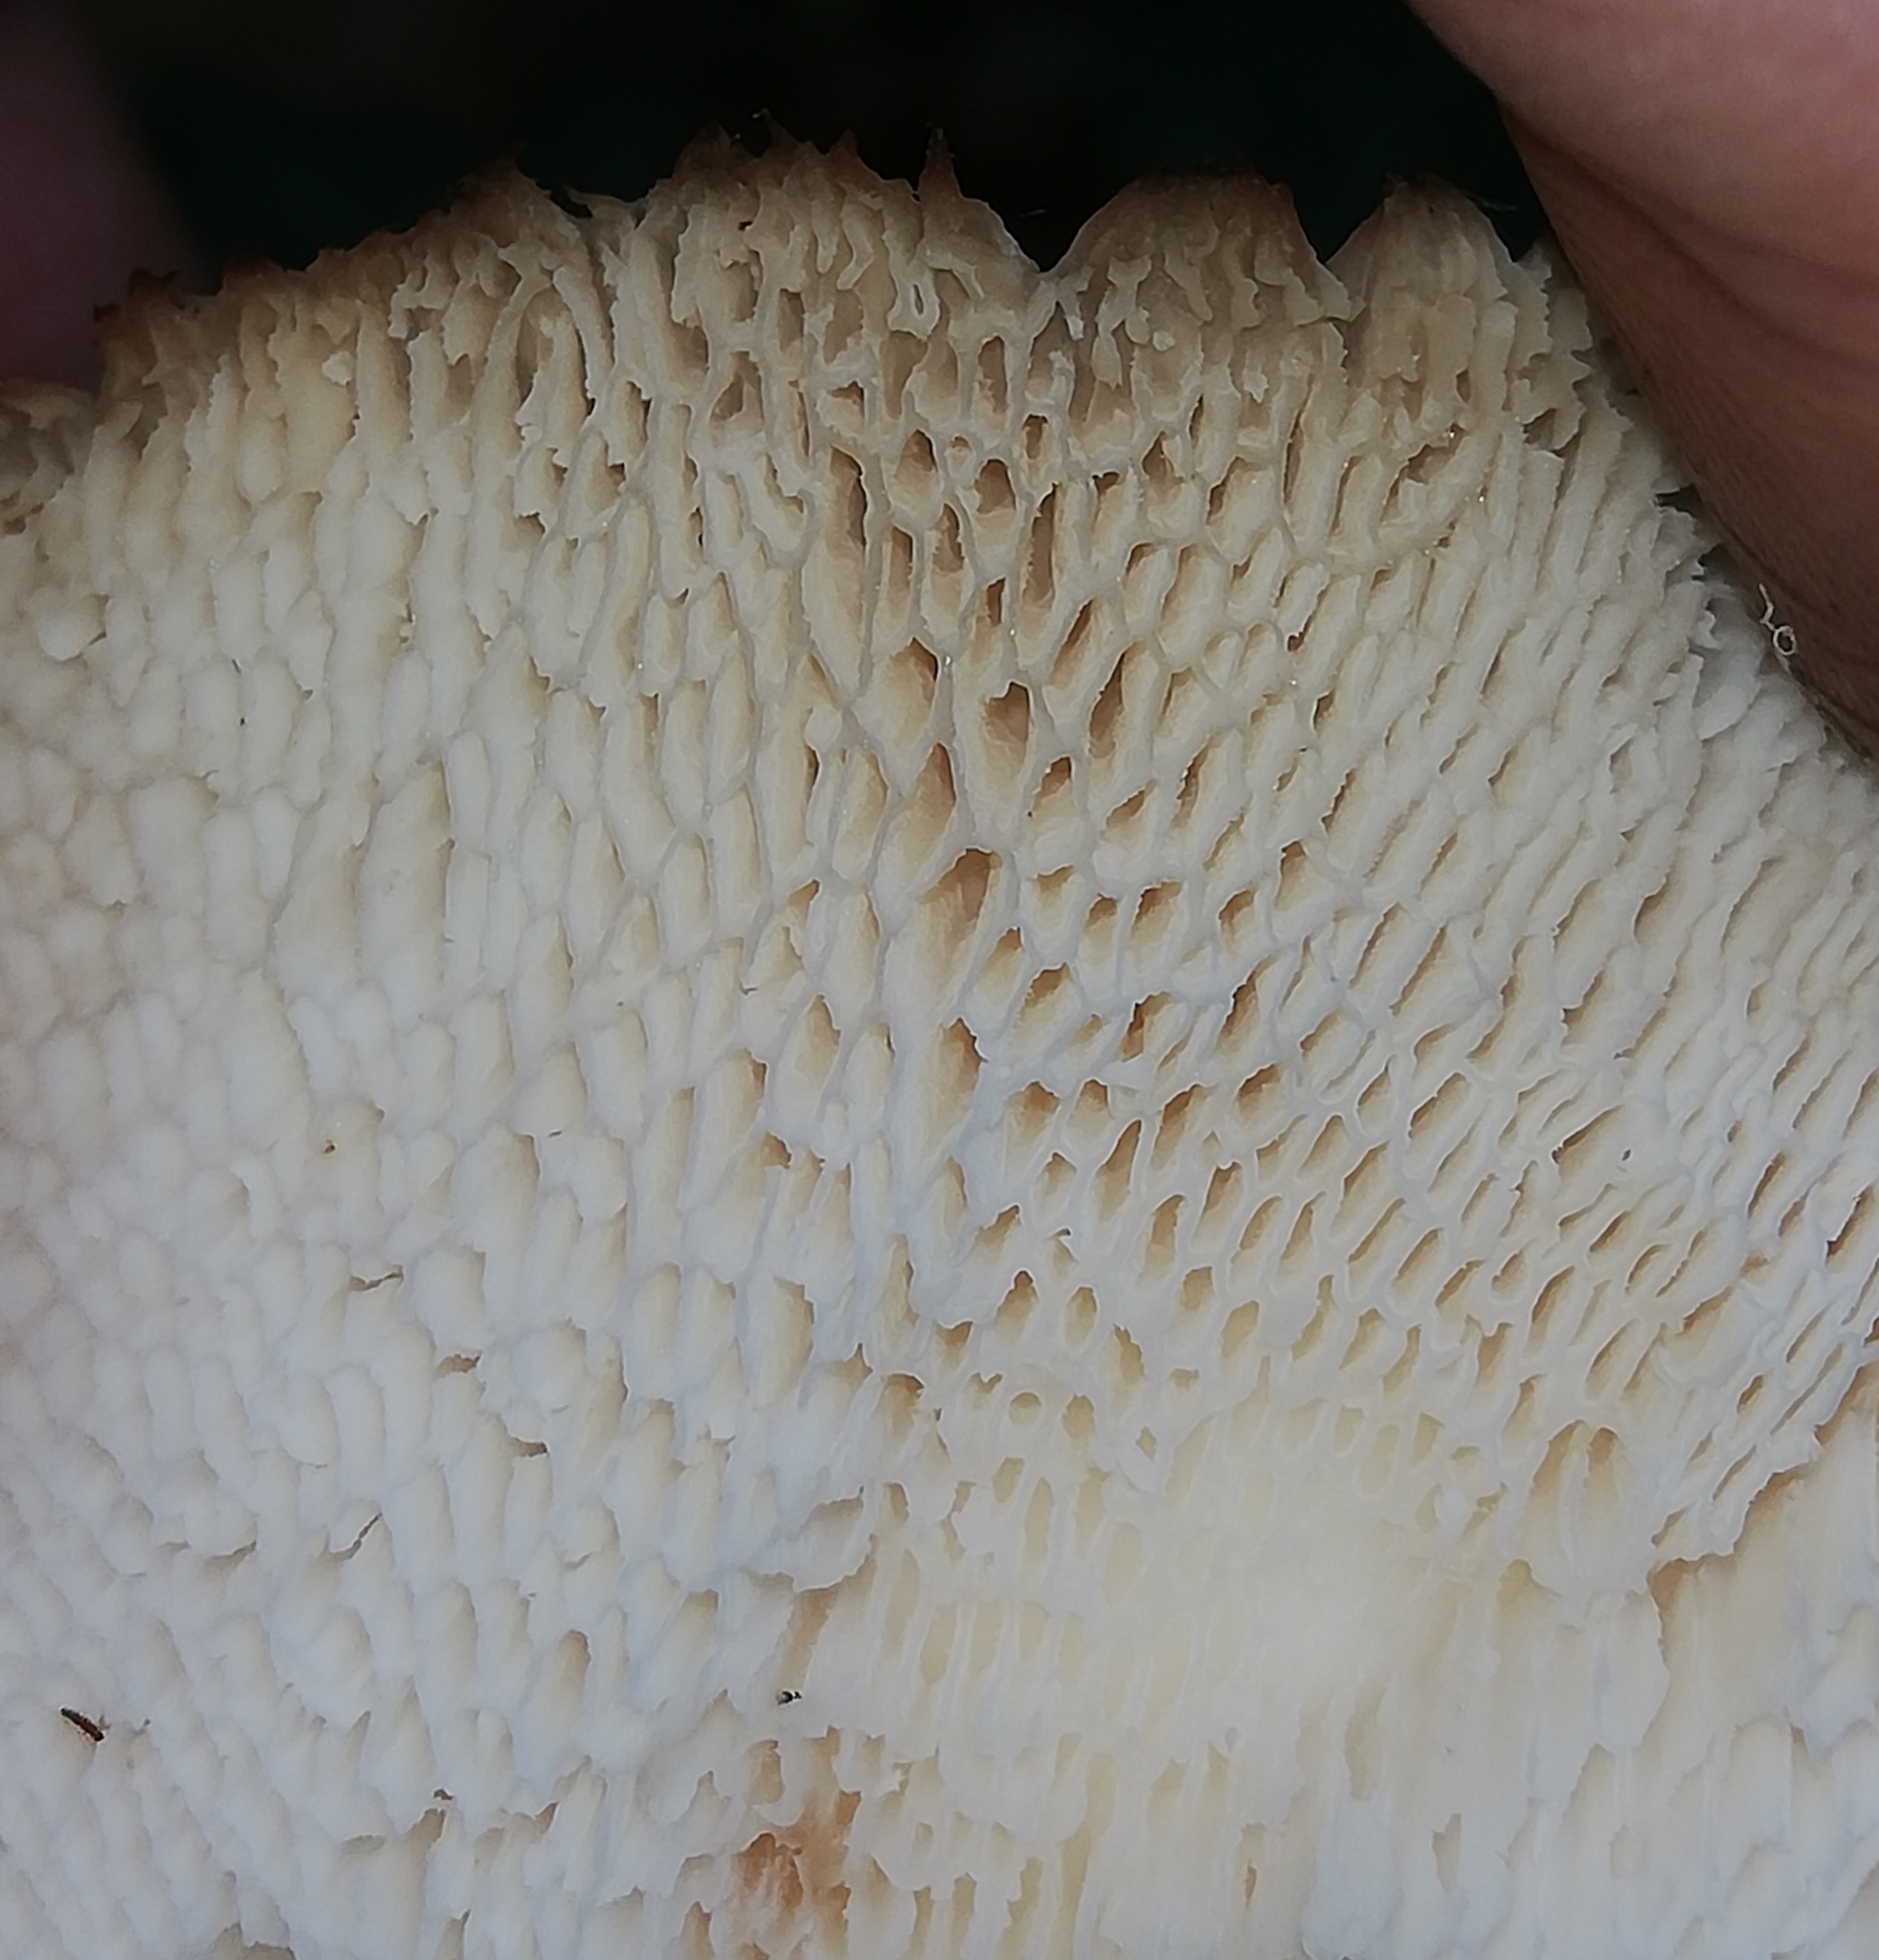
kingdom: Fungi
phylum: Basidiomycota
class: Agaricomycetes
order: Polyporales
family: Polyporaceae
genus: Polyporus
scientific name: Polyporus tuberaster
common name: Tuberous polypore
